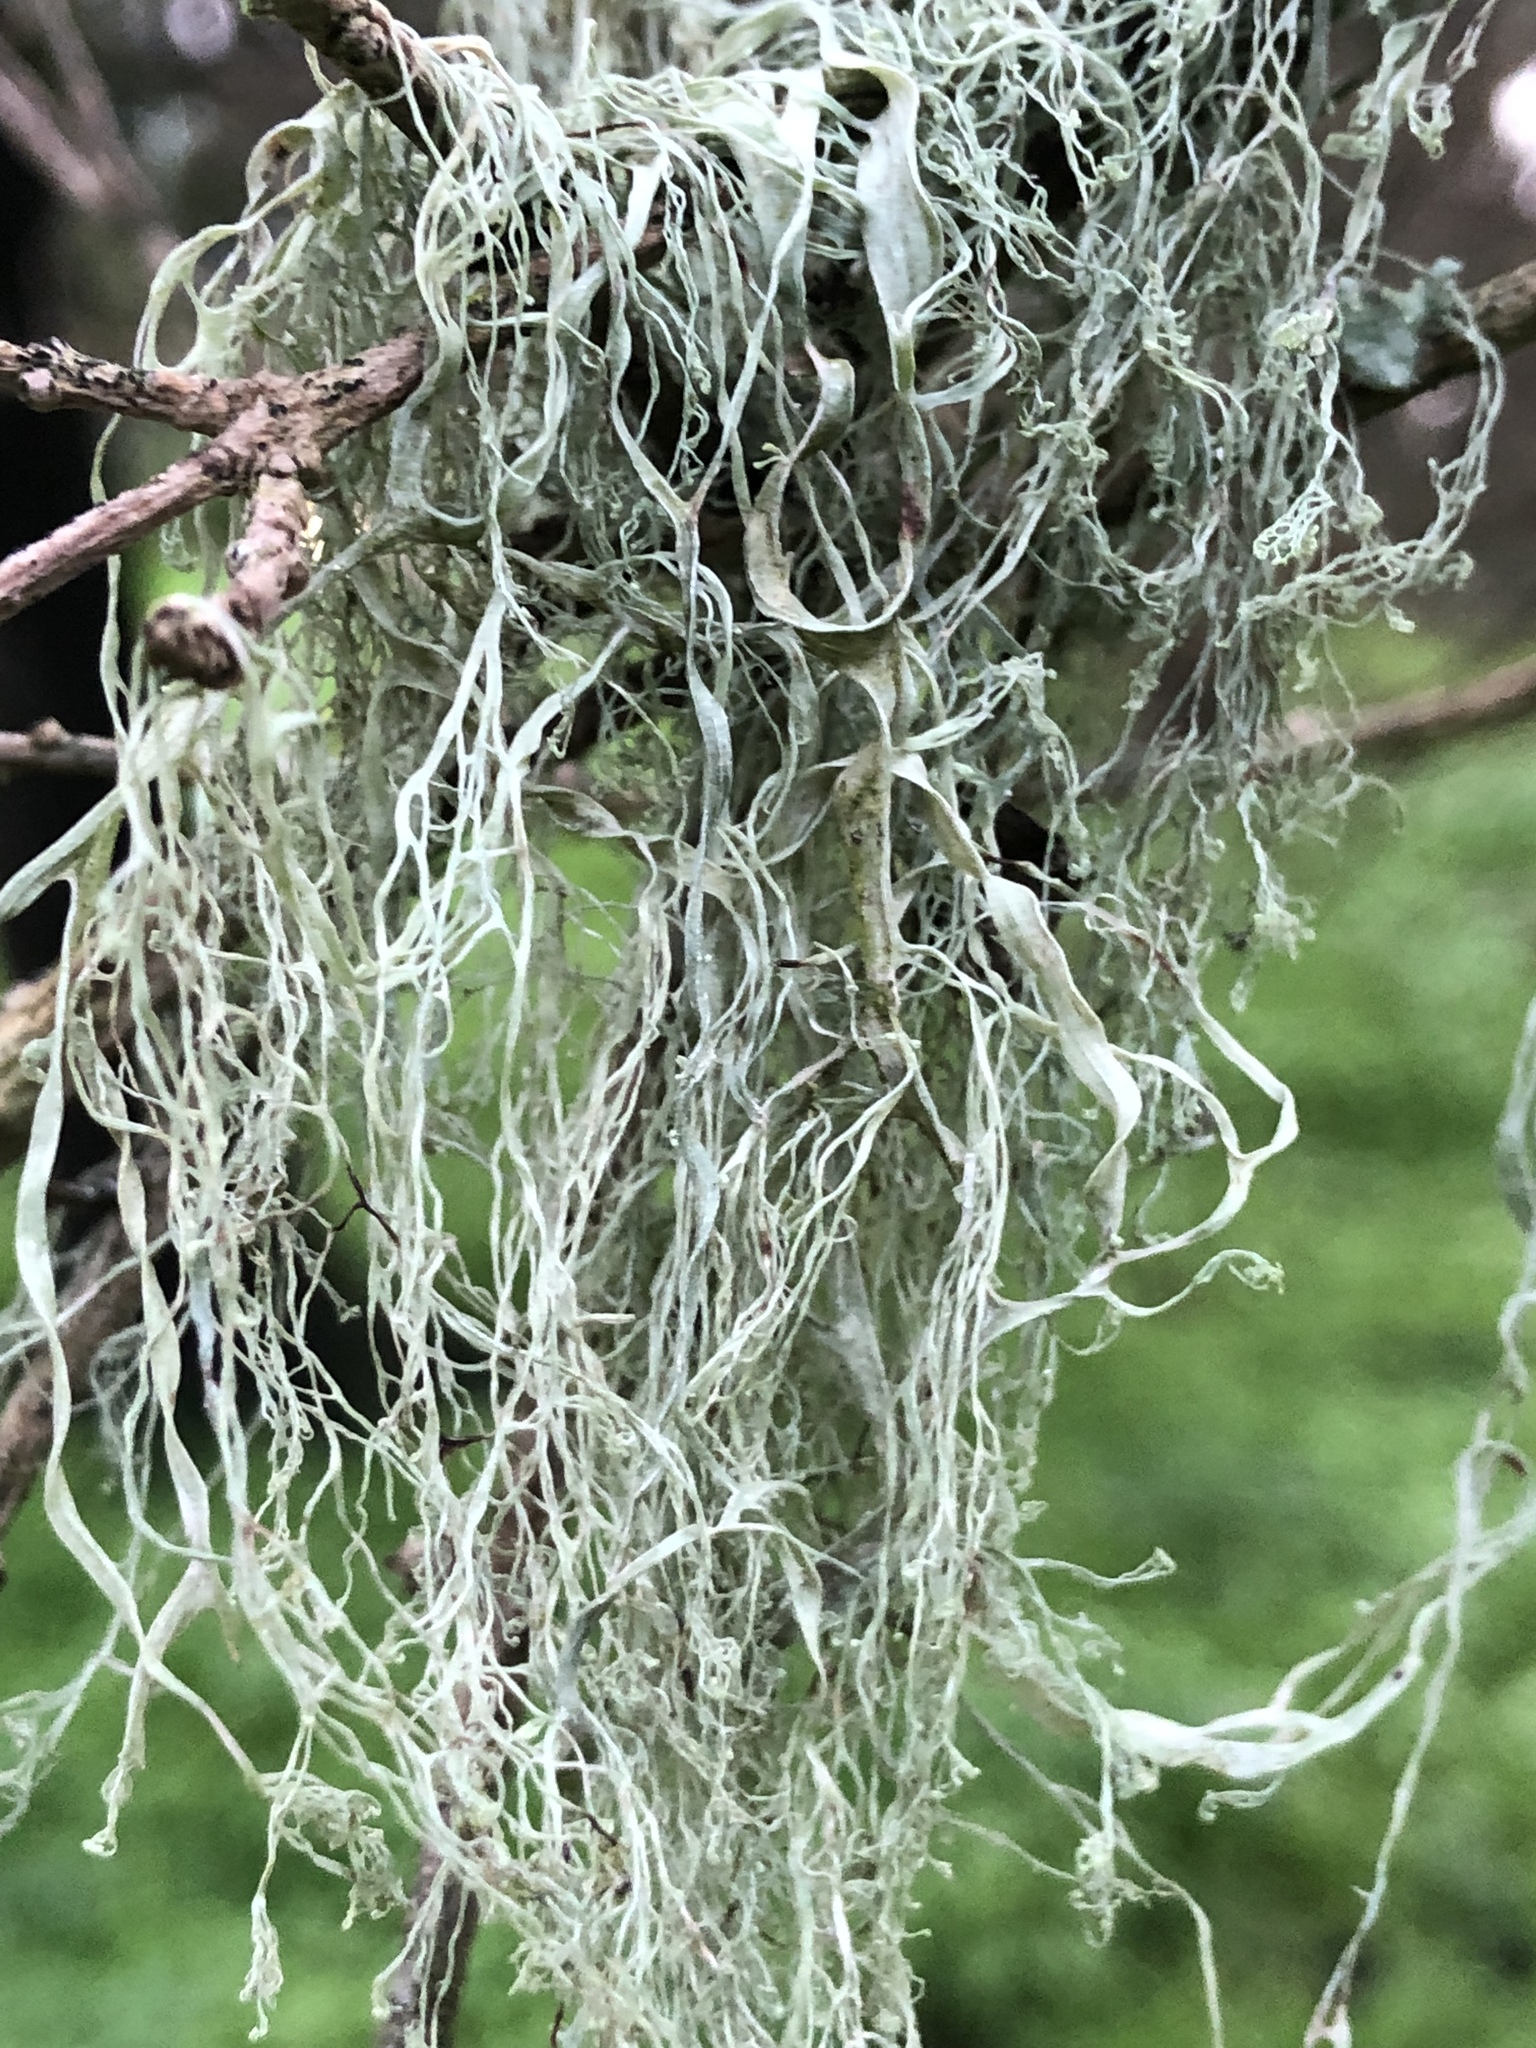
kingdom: Fungi
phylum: Ascomycota
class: Lecanoromycetes
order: Lecanorales
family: Ramalinaceae
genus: Ramalina
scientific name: Ramalina menziesii
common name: Lace lichen
